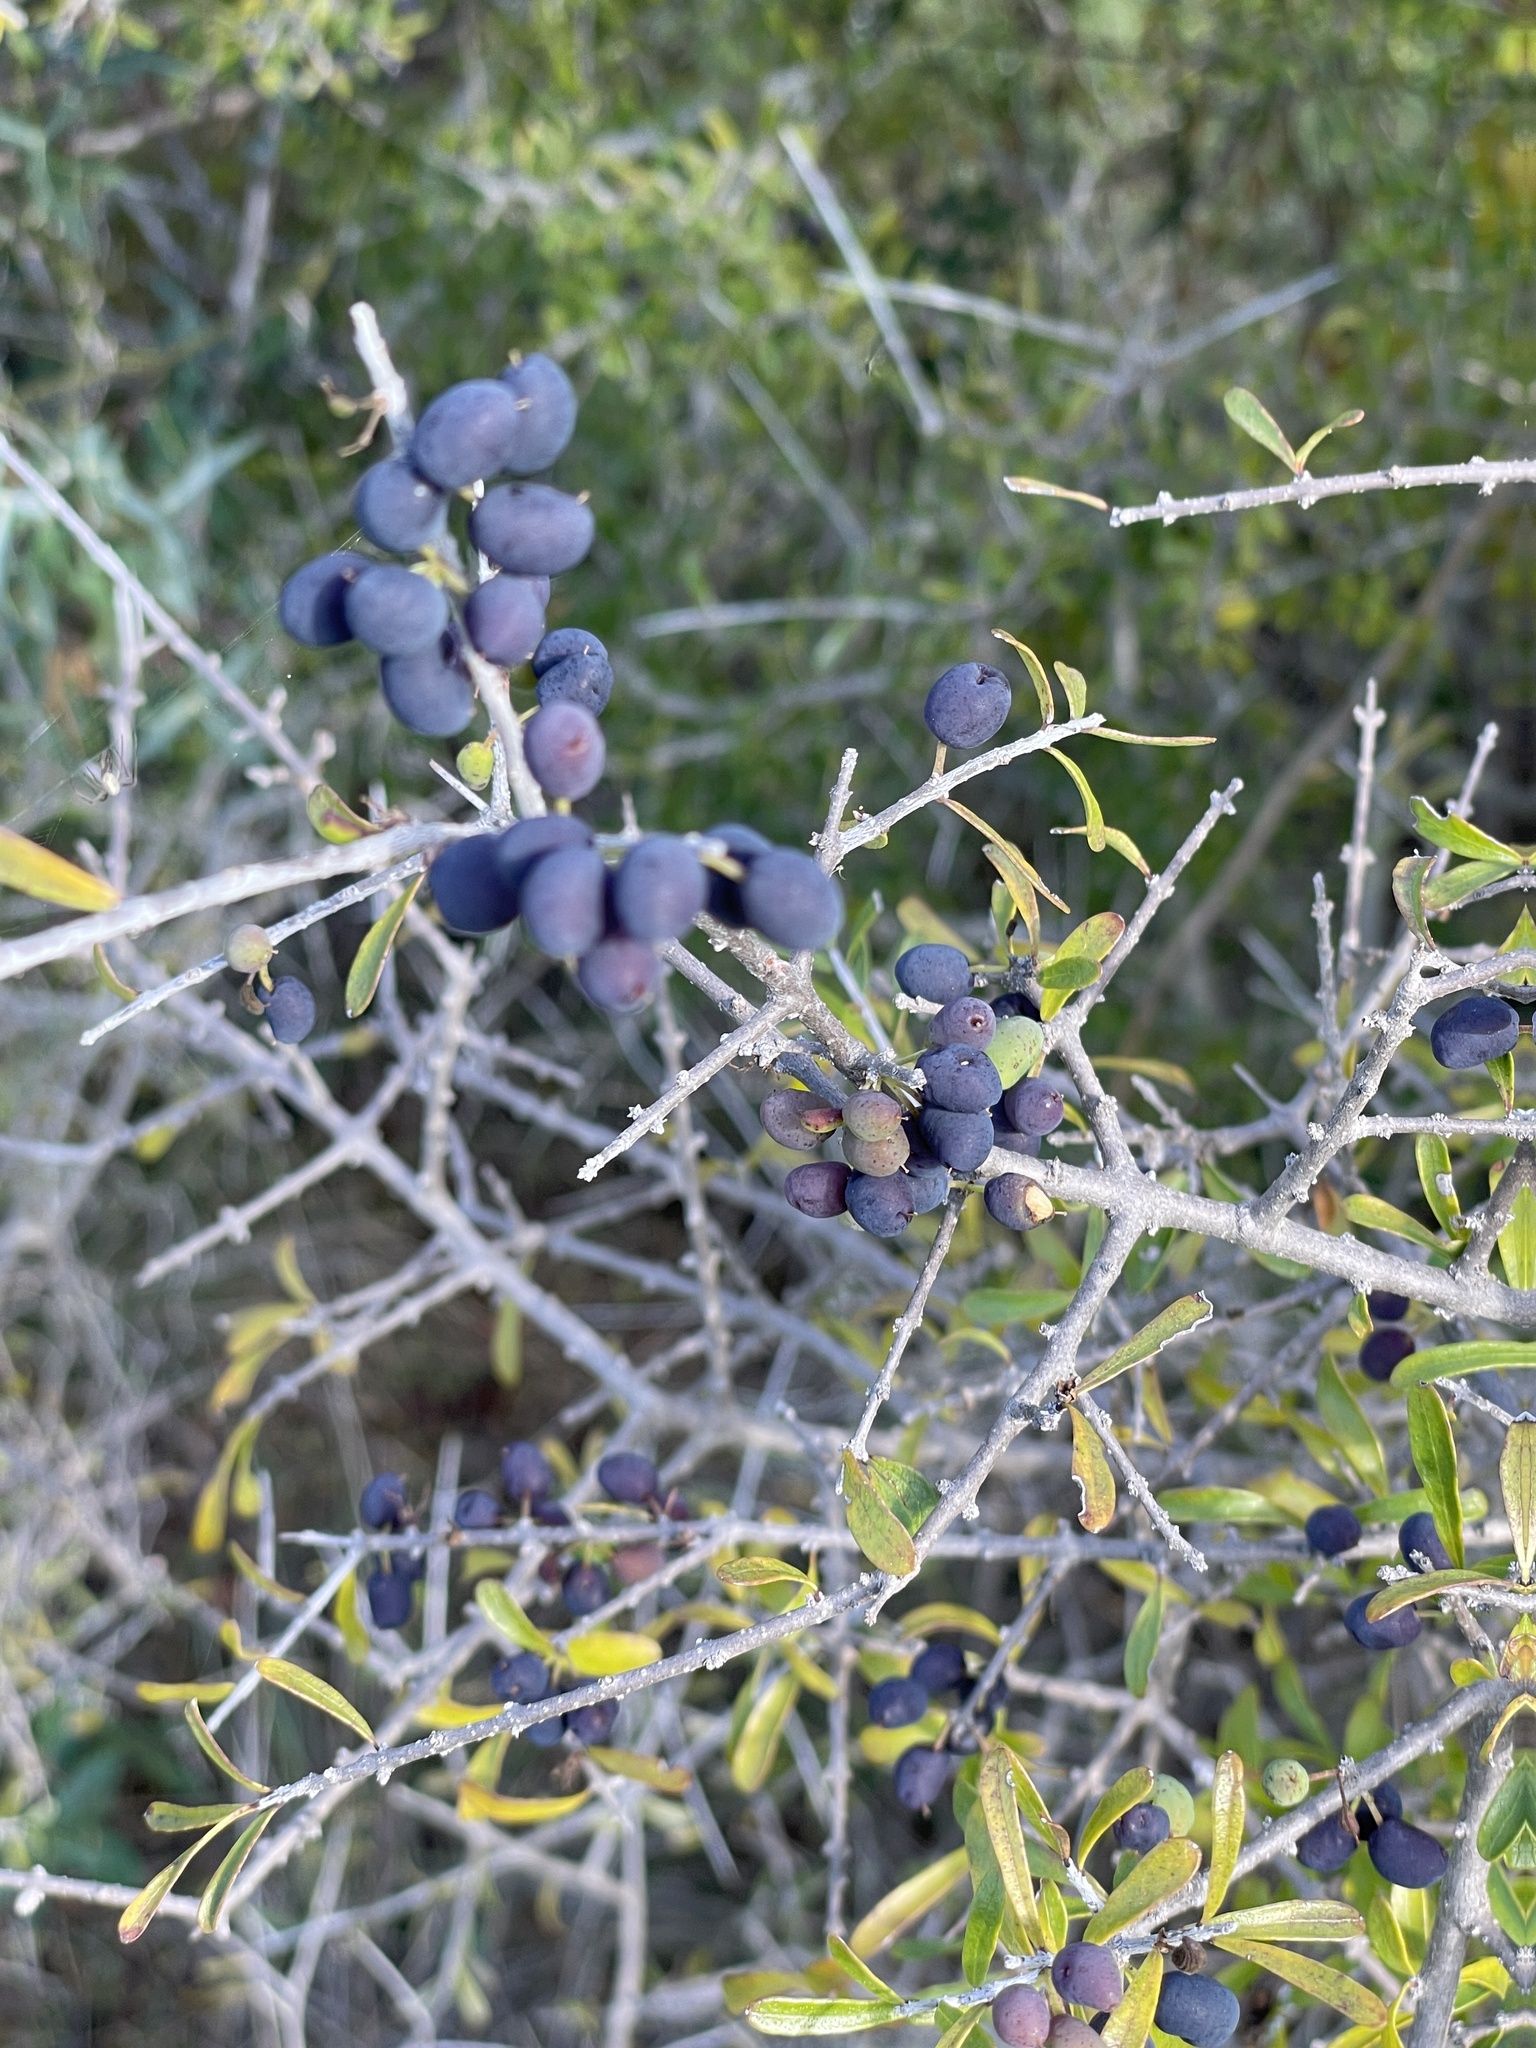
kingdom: Plantae
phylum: Tracheophyta
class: Magnoliopsida
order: Lamiales
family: Oleaceae
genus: Forestiera
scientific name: Forestiera angustifolia
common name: Elbowbush
